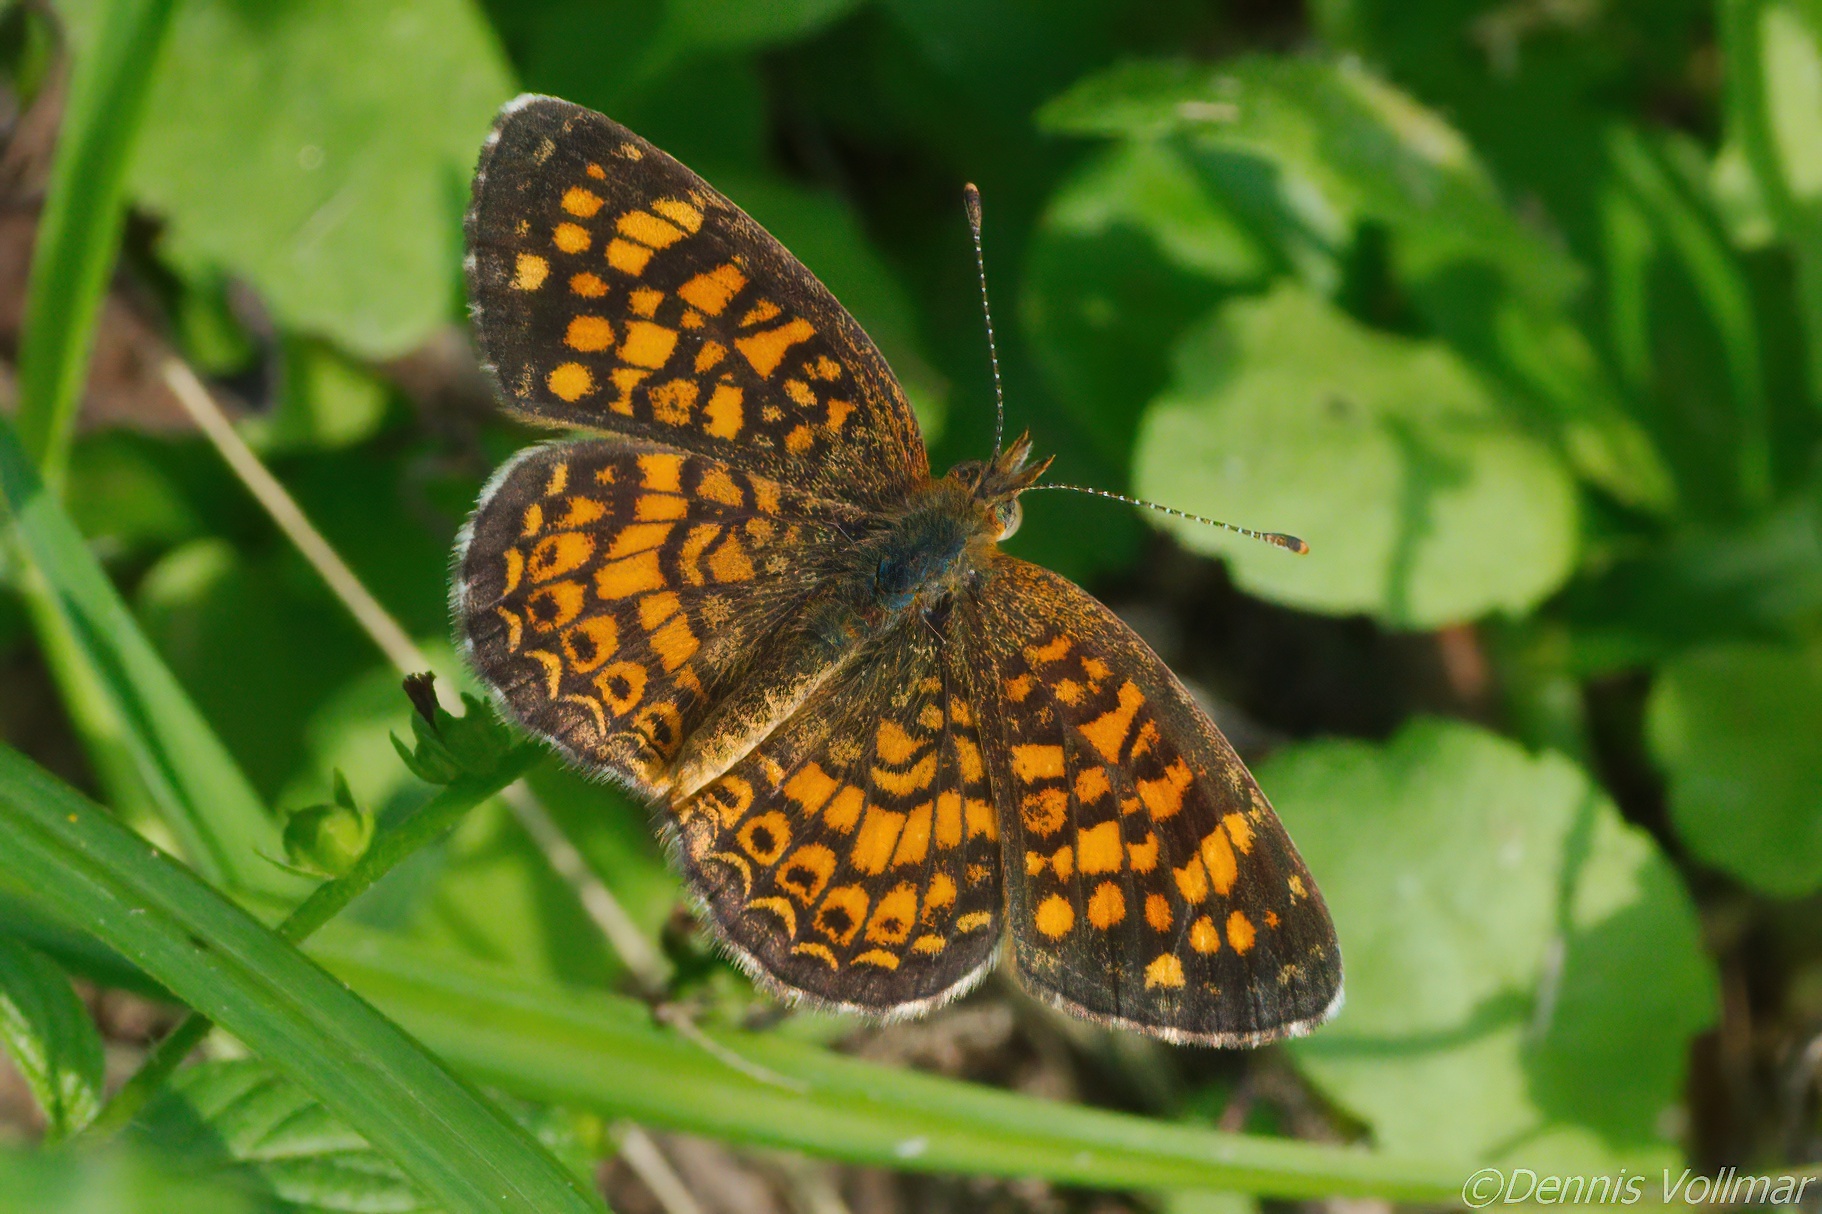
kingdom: Animalia
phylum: Arthropoda
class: Insecta
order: Lepidoptera
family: Nymphalidae
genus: Phyciodes
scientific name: Phyciodes vesta
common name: Vesta crescent
